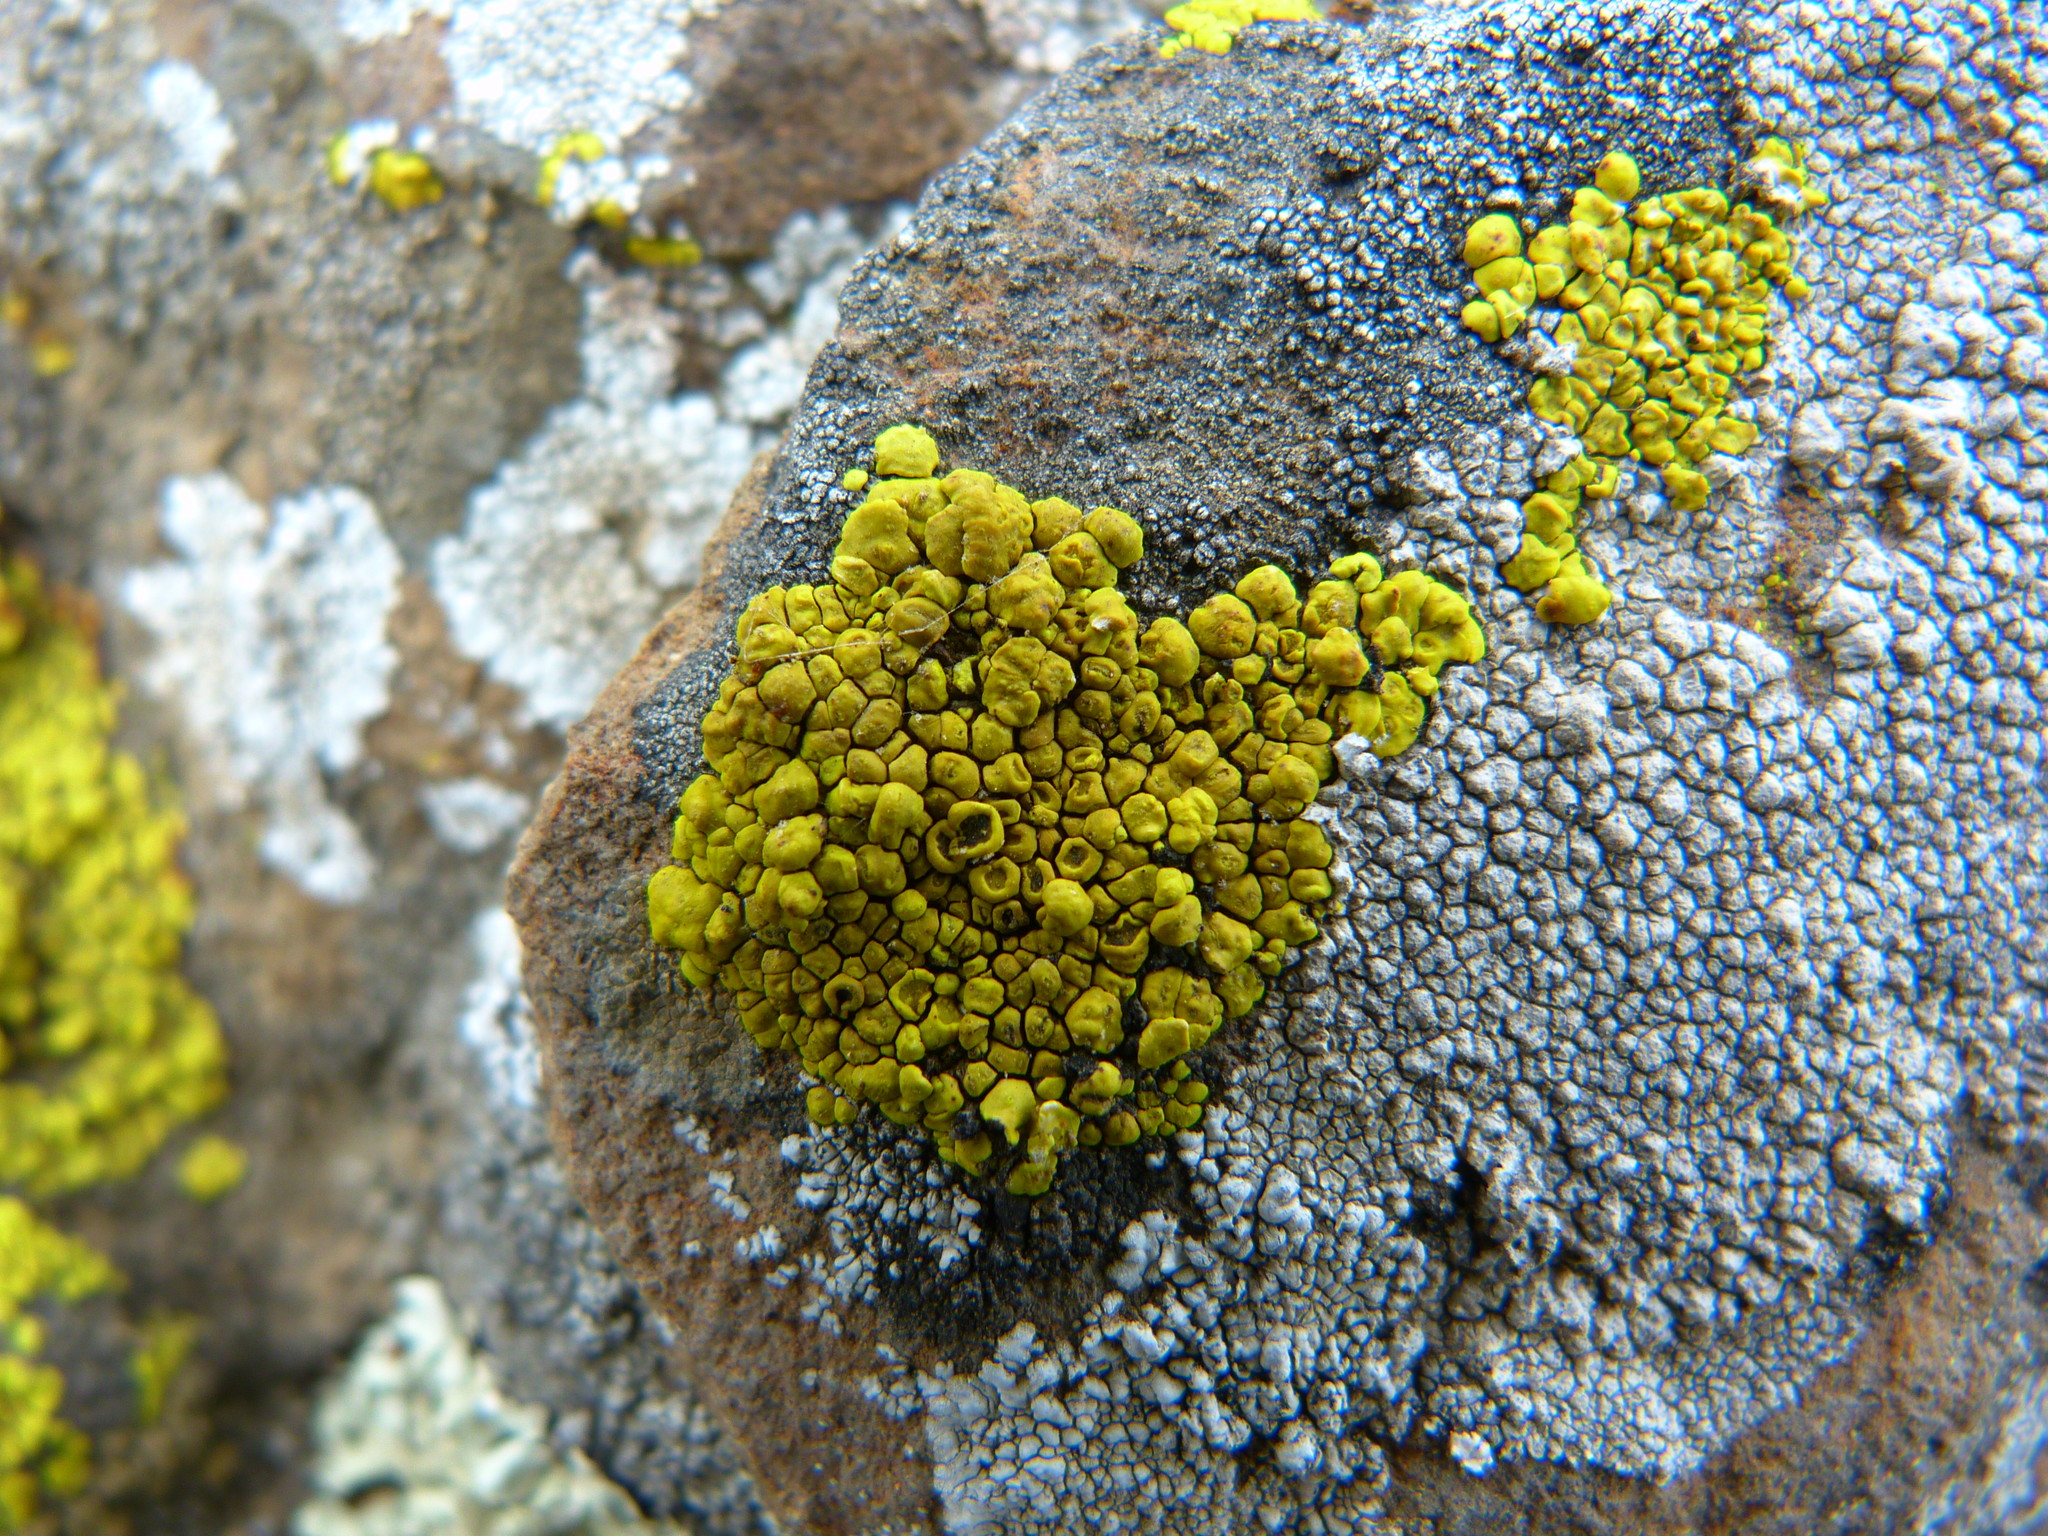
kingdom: Fungi
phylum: Ascomycota
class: Lecanoromycetes
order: Acarosporales
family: Acarosporaceae
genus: Acarospora
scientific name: Acarospora socialis
